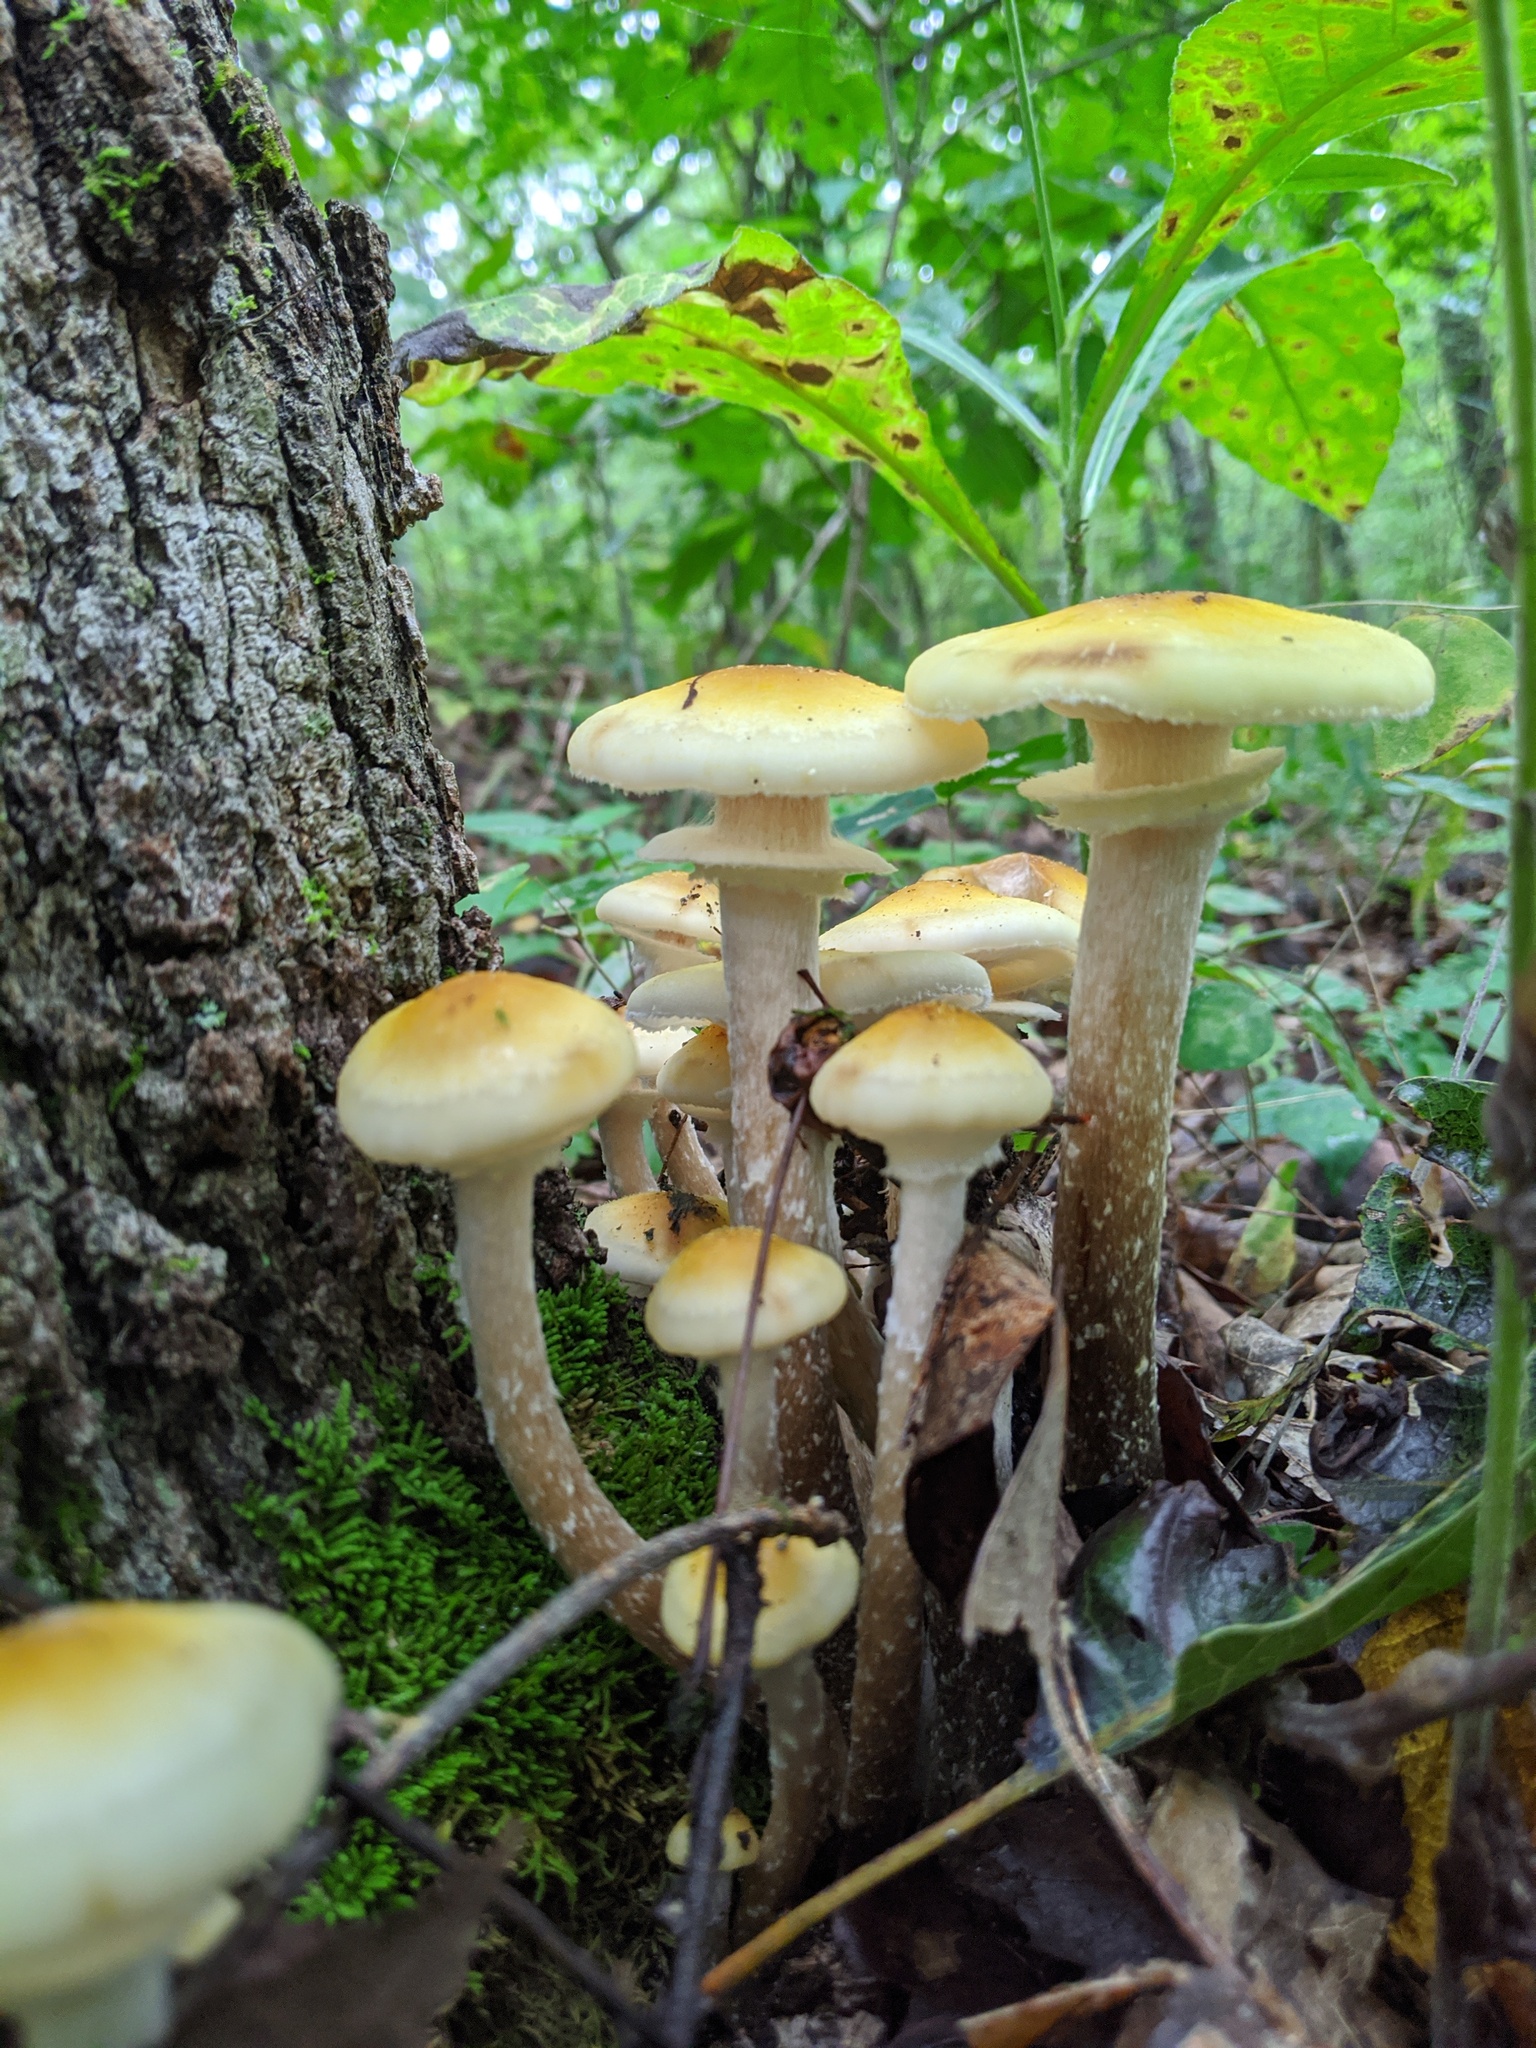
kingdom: Fungi
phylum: Basidiomycota
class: Agaricomycetes
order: Agaricales
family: Physalacriaceae
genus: Armillaria
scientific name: Armillaria mellea
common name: Honey fungus
